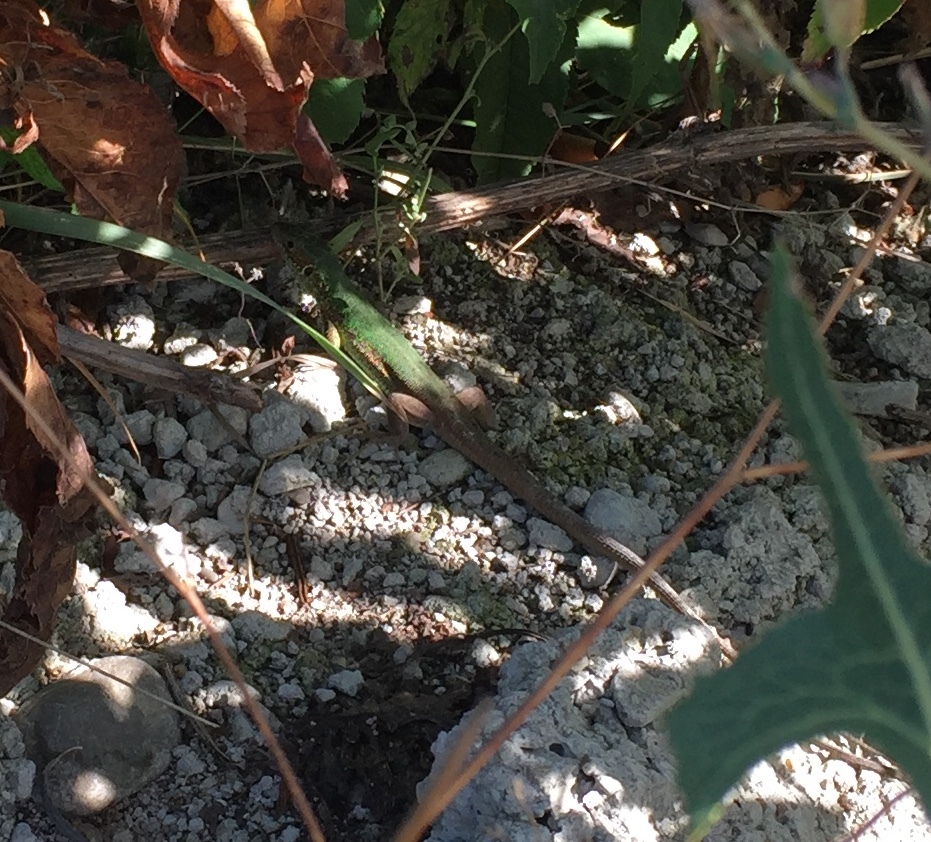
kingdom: Animalia
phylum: Chordata
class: Squamata
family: Lacertidae
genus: Lacerta
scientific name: Lacerta viridis
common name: European green lizard
